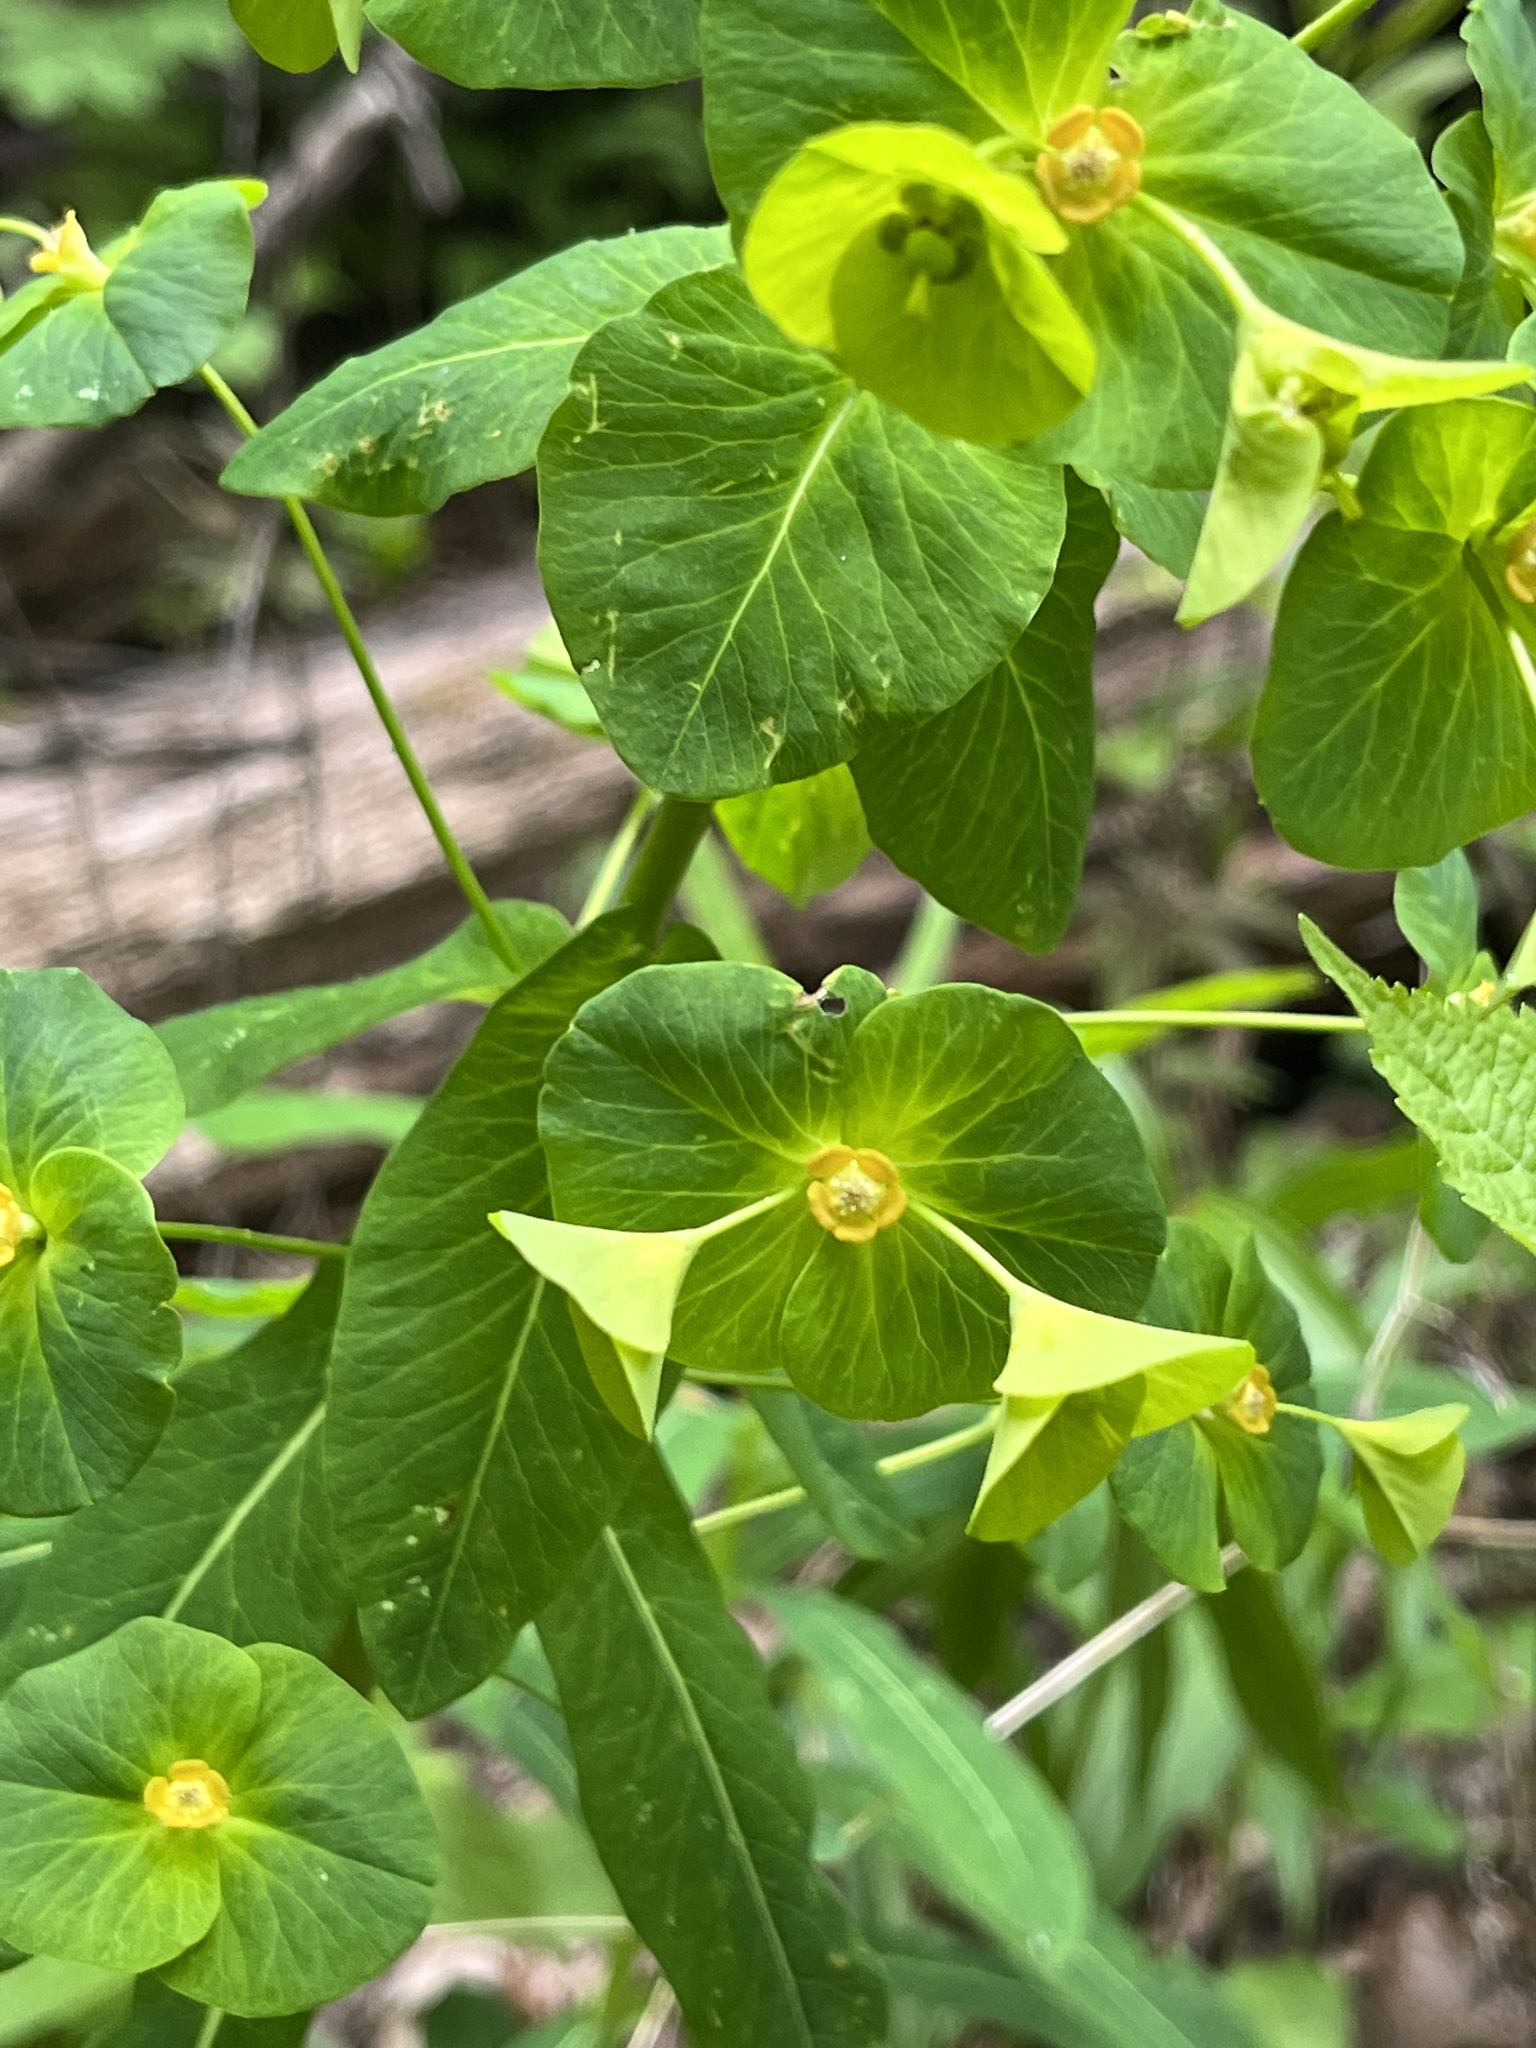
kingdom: Plantae
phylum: Tracheophyta
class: Magnoliopsida
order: Malpighiales
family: Euphorbiaceae
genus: Euphorbia
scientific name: Euphorbia purpurea
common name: Darlington's spurge
